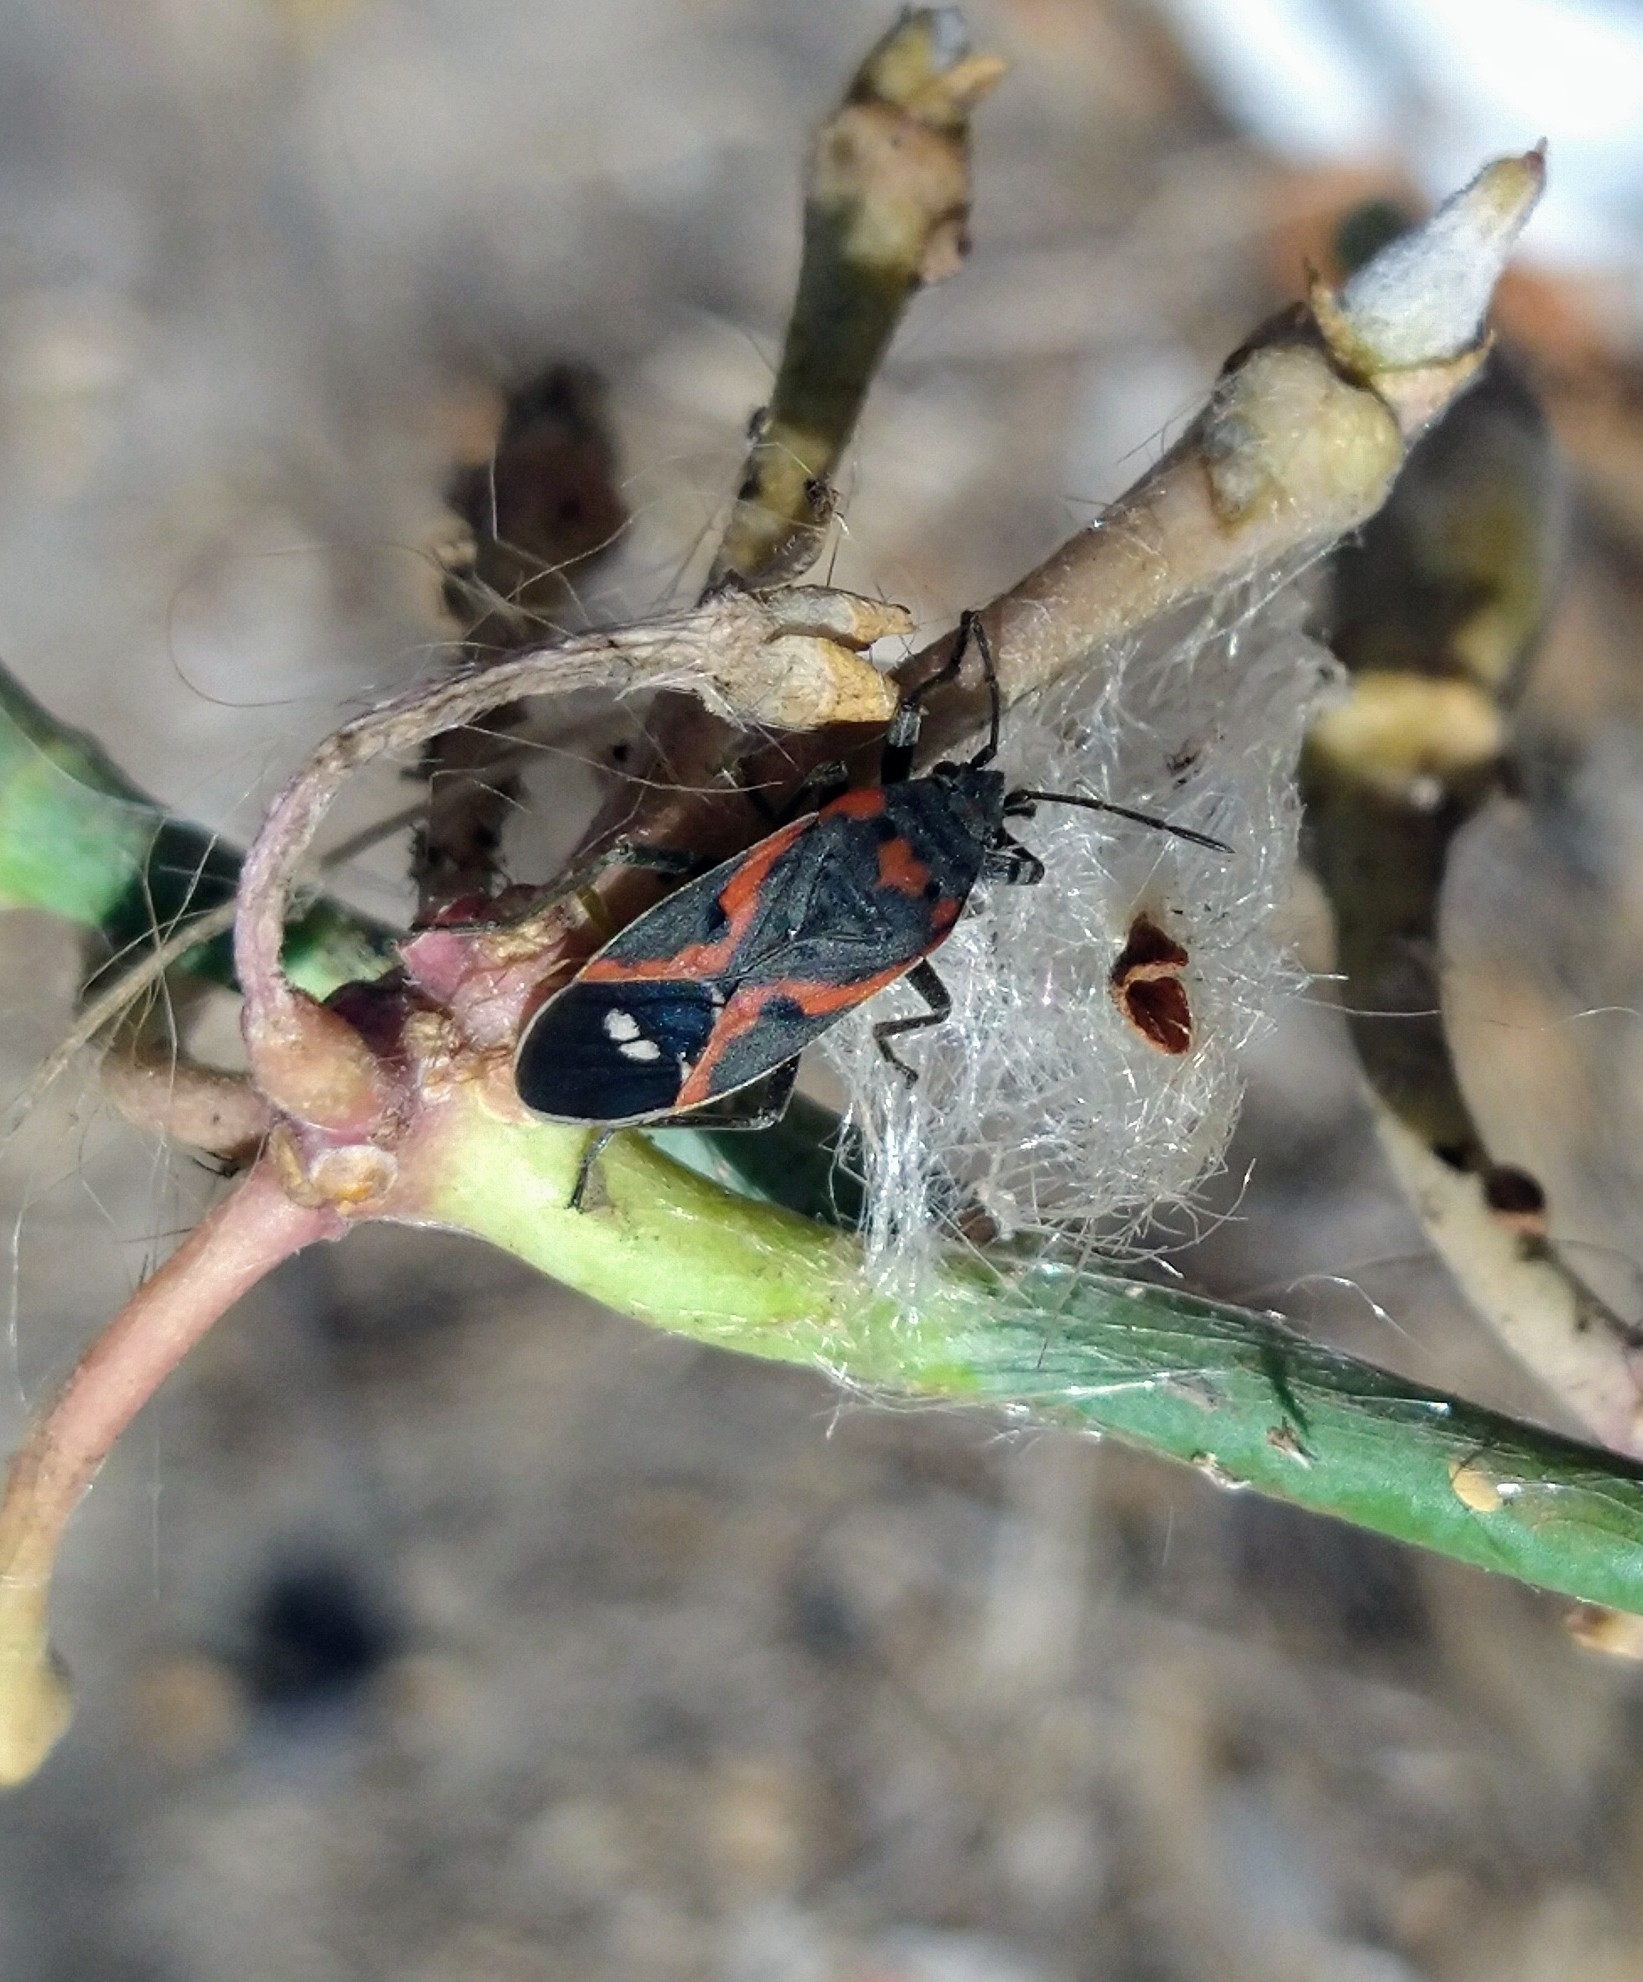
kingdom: Animalia
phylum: Arthropoda
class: Insecta
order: Hemiptera
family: Lygaeidae
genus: Lygaeus
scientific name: Lygaeus kalmii
